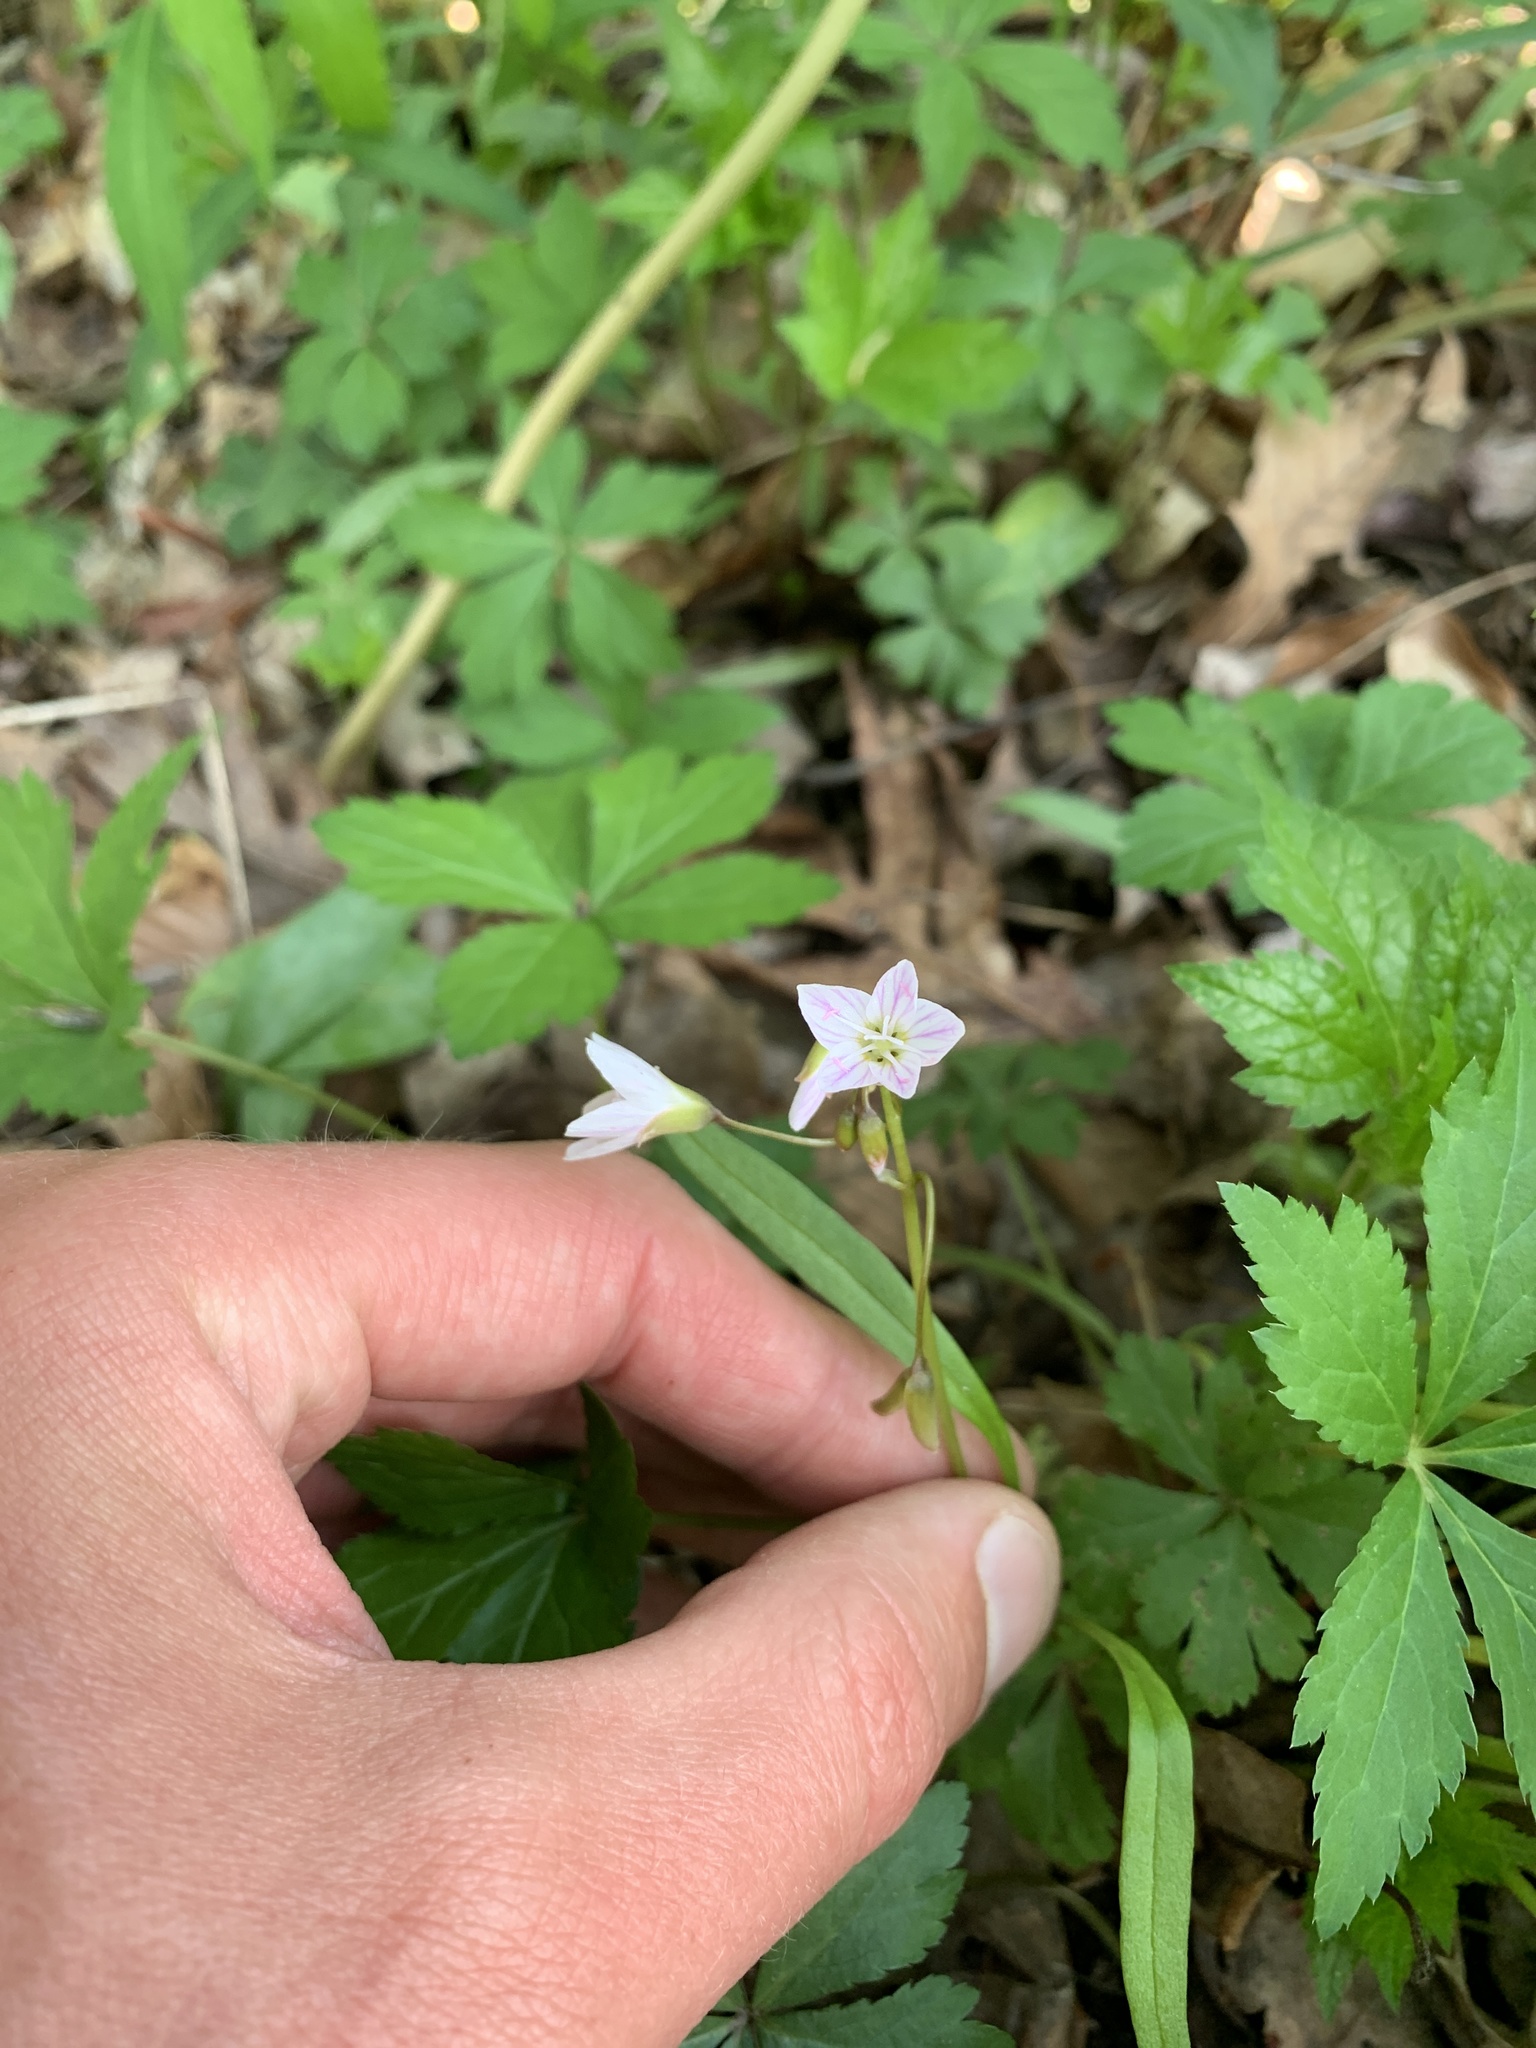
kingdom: Plantae
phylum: Tracheophyta
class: Magnoliopsida
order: Caryophyllales
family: Montiaceae
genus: Claytonia
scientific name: Claytonia virginica
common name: Virginia springbeauty
